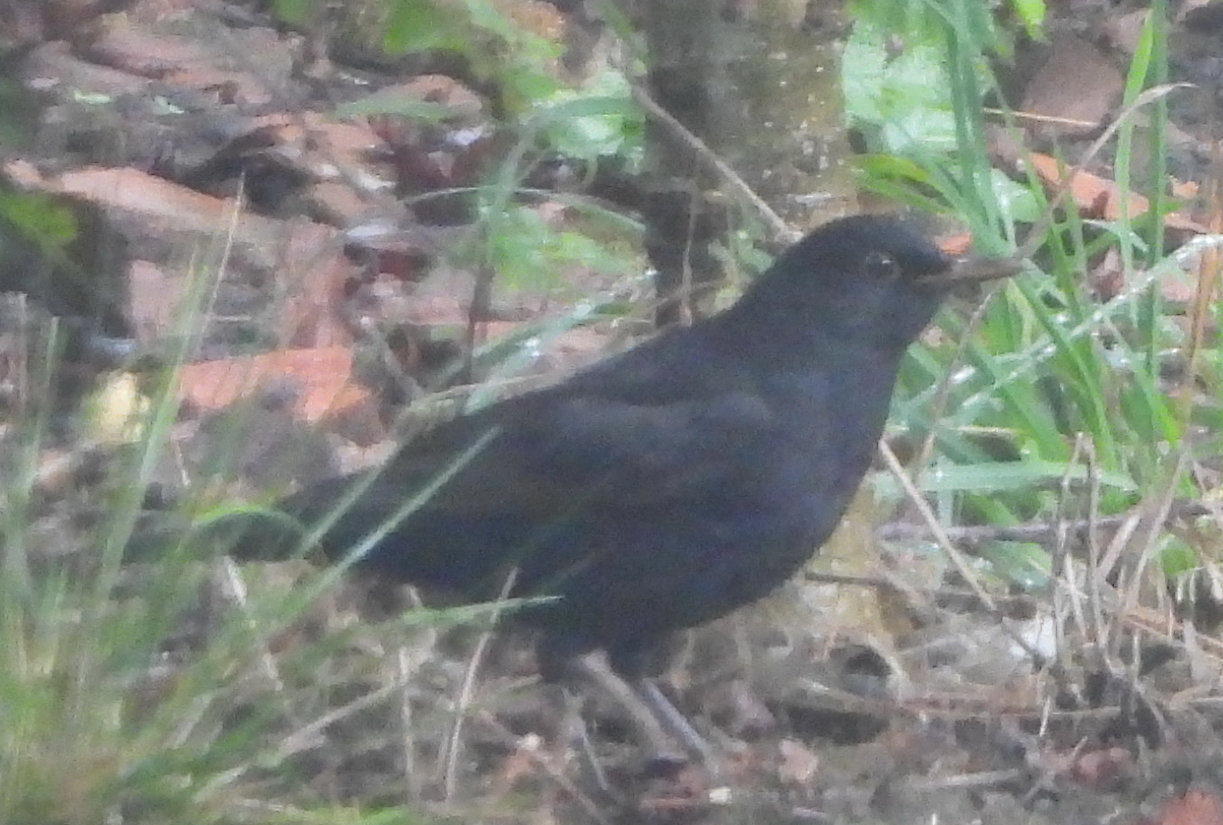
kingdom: Animalia
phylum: Chordata
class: Aves
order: Passeriformes
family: Turdidae
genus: Turdus
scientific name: Turdus merula
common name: Common blackbird
